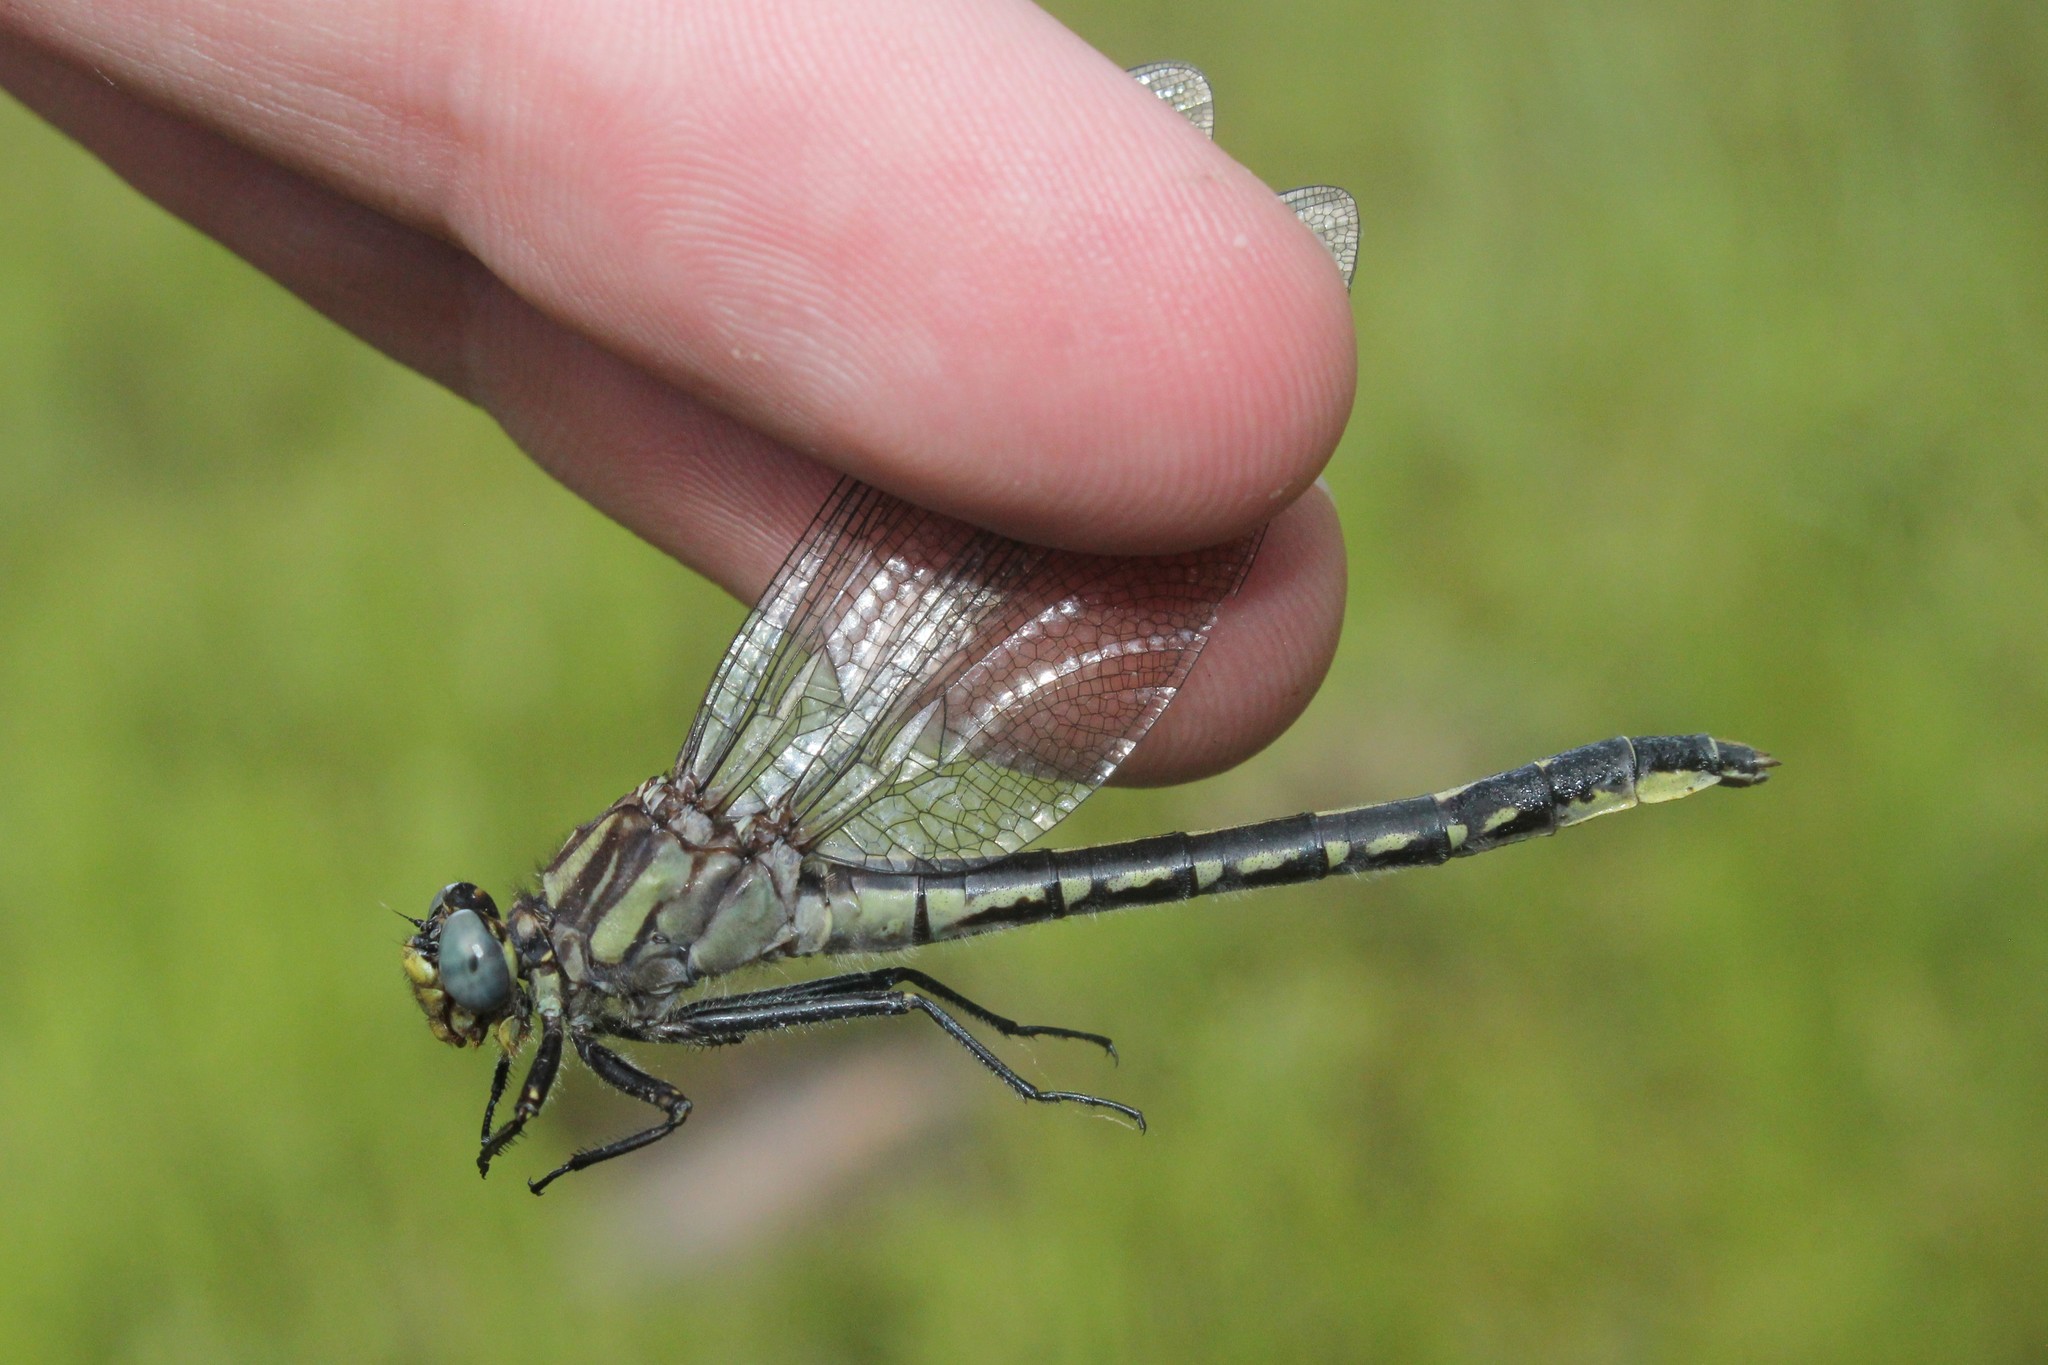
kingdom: Animalia
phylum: Arthropoda
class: Insecta
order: Odonata
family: Gomphidae
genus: Phanogomphus
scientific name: Phanogomphus borealis
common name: Beaverpond clubtail
